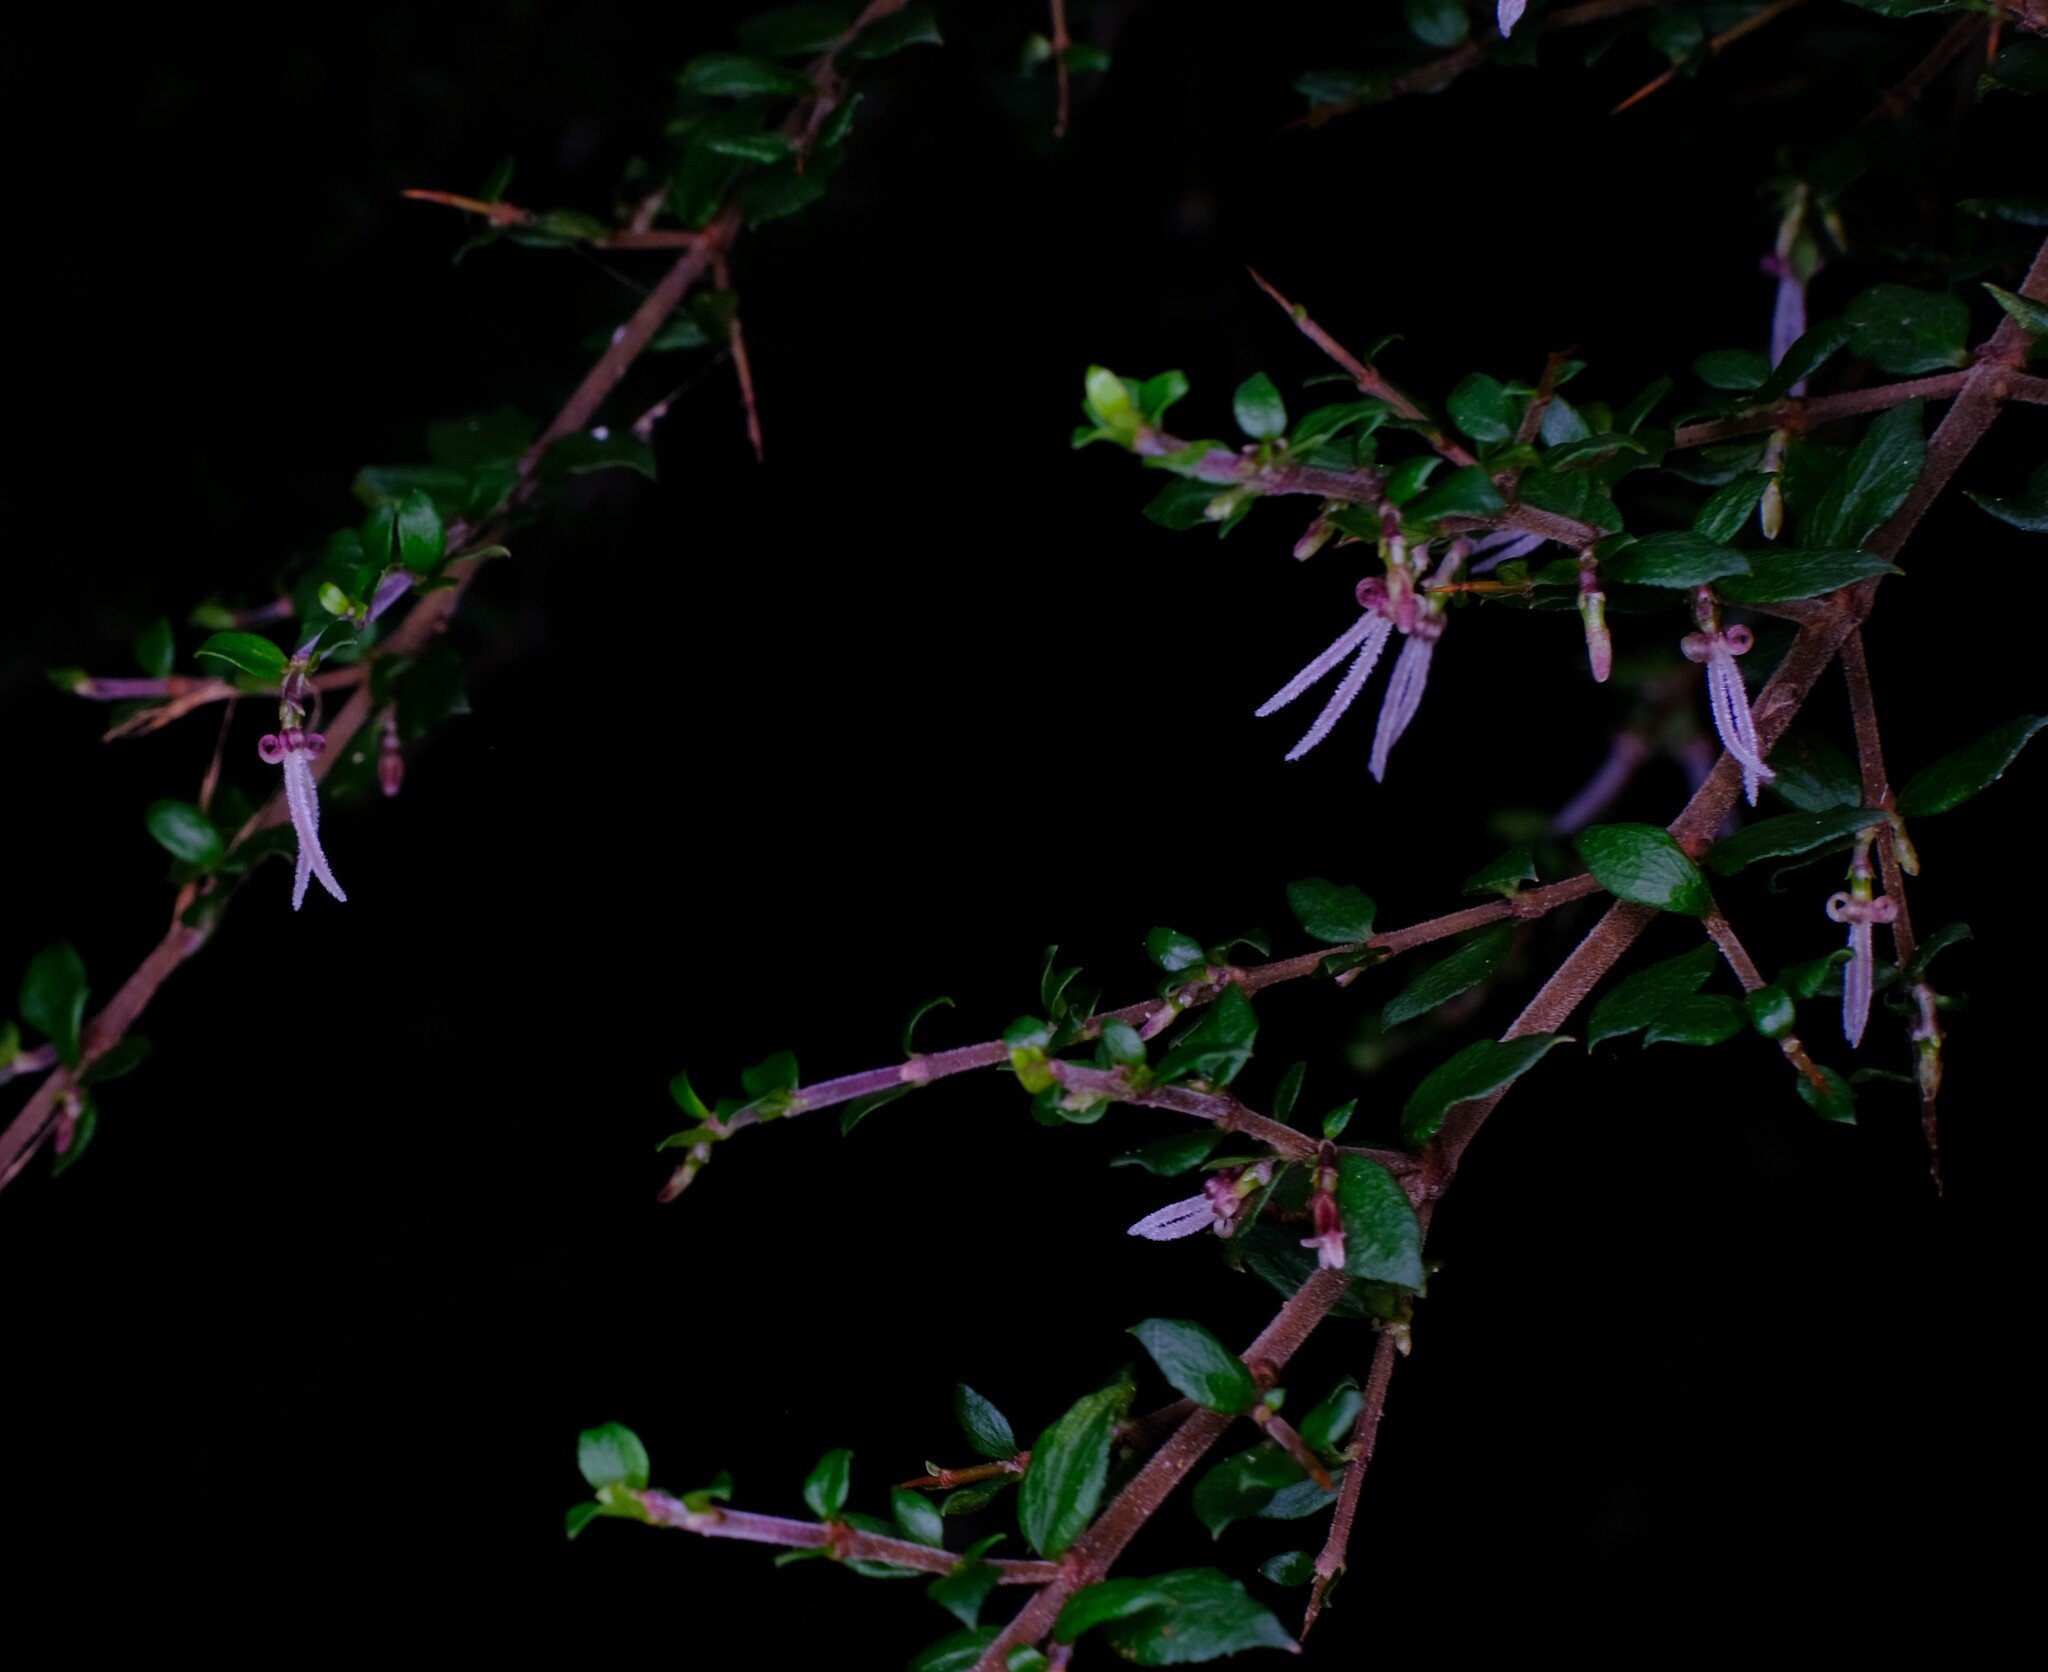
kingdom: Plantae
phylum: Tracheophyta
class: Magnoliopsida
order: Gentianales
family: Rubiaceae
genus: Coprosma
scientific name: Coprosma quadrifida
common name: Prickly currantbush
